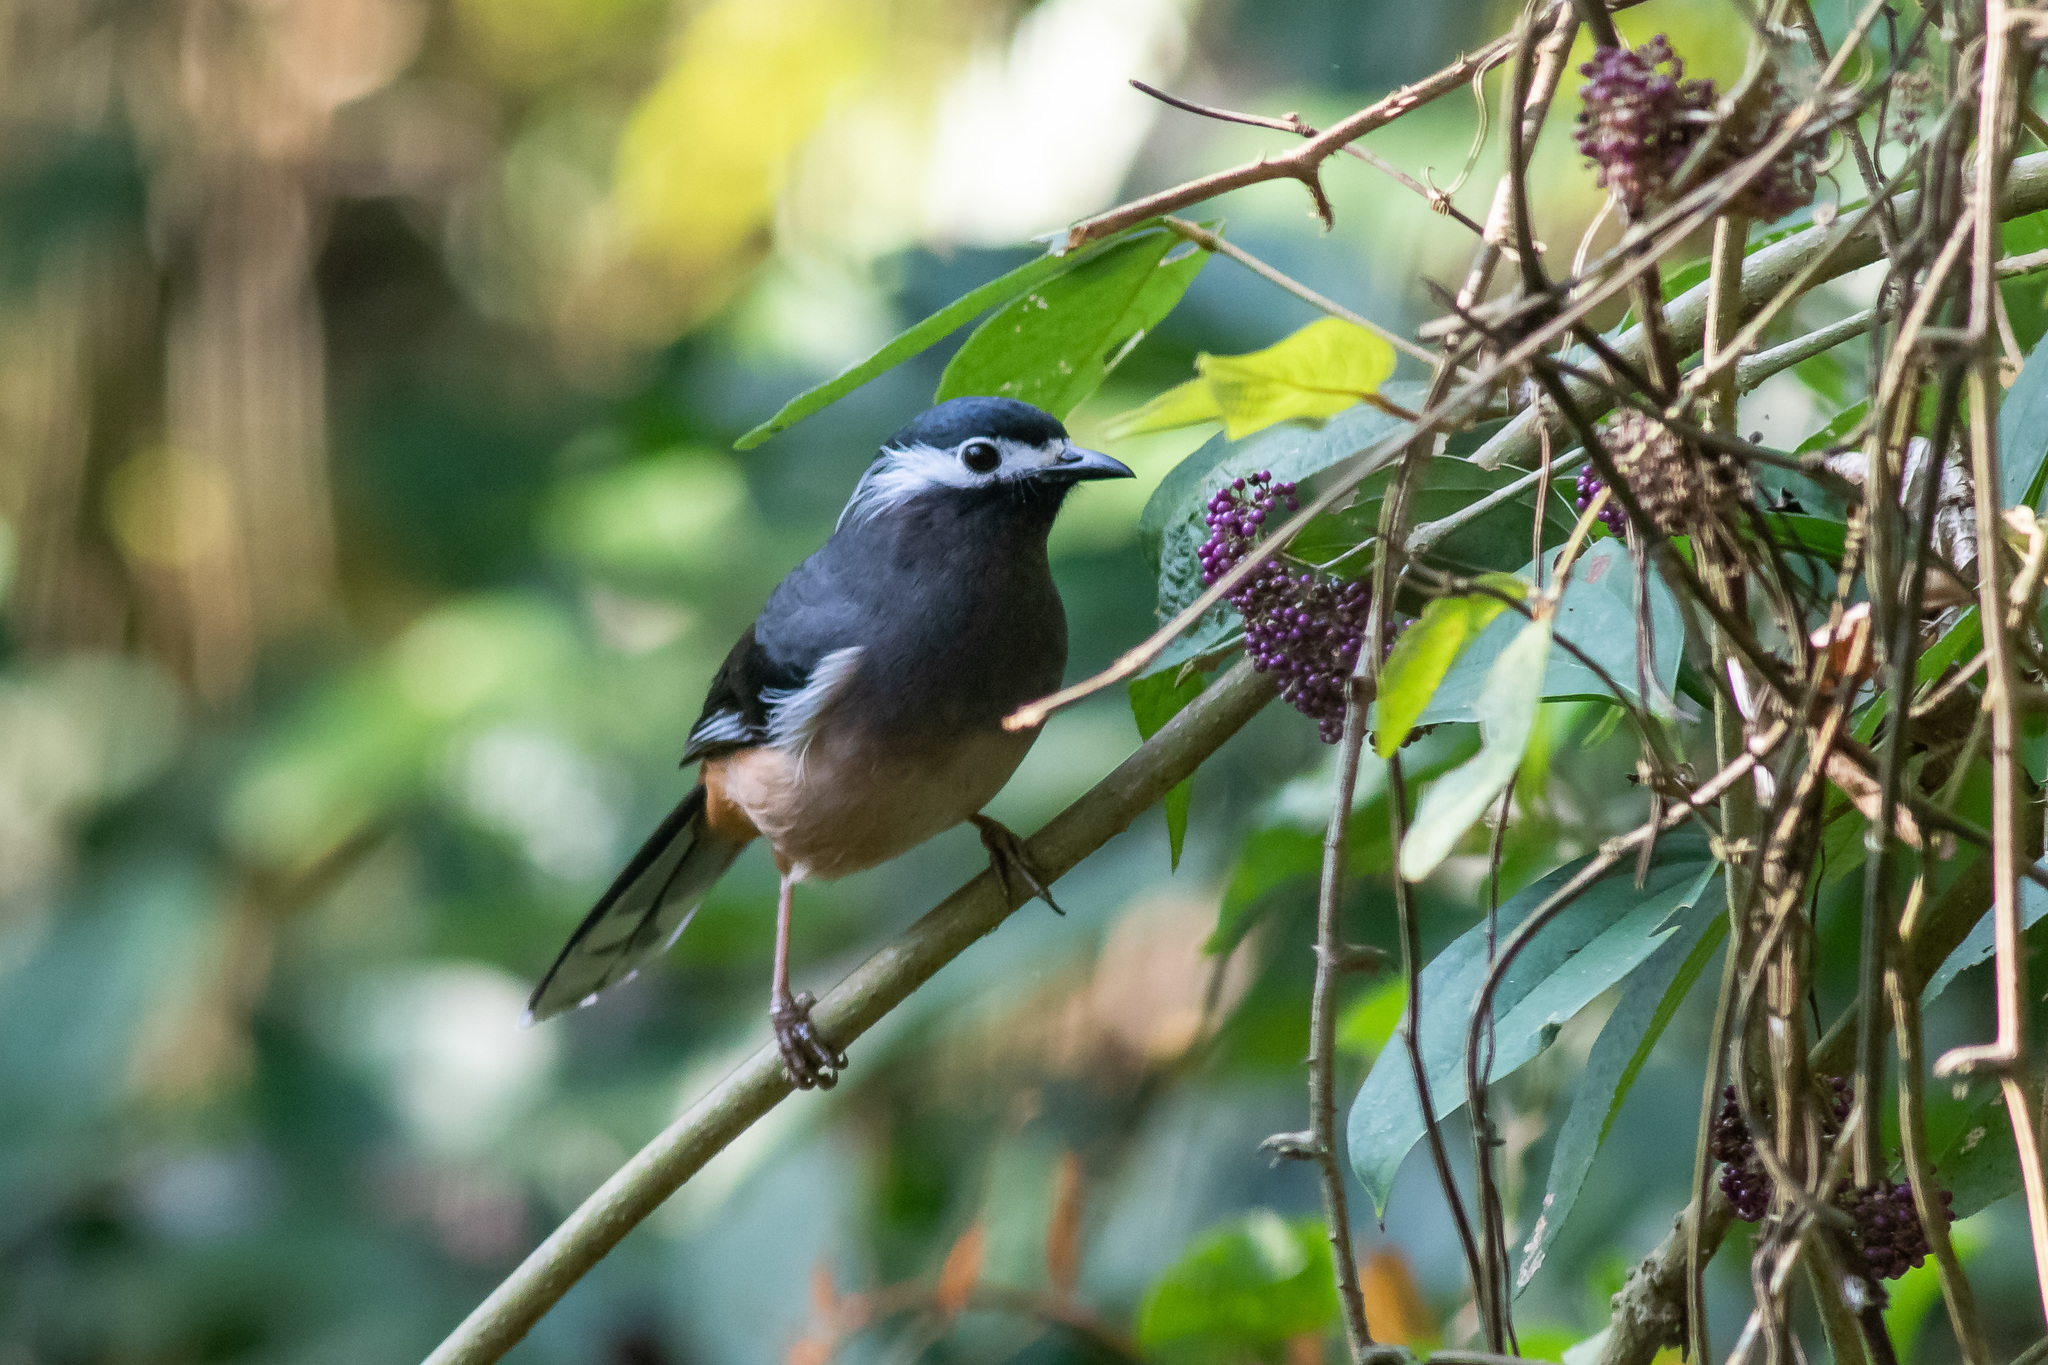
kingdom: Animalia
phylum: Chordata
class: Aves
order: Passeriformes
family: Leiothrichidae
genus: Heterophasia
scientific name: Heterophasia auricularis
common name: White-eared sibia
